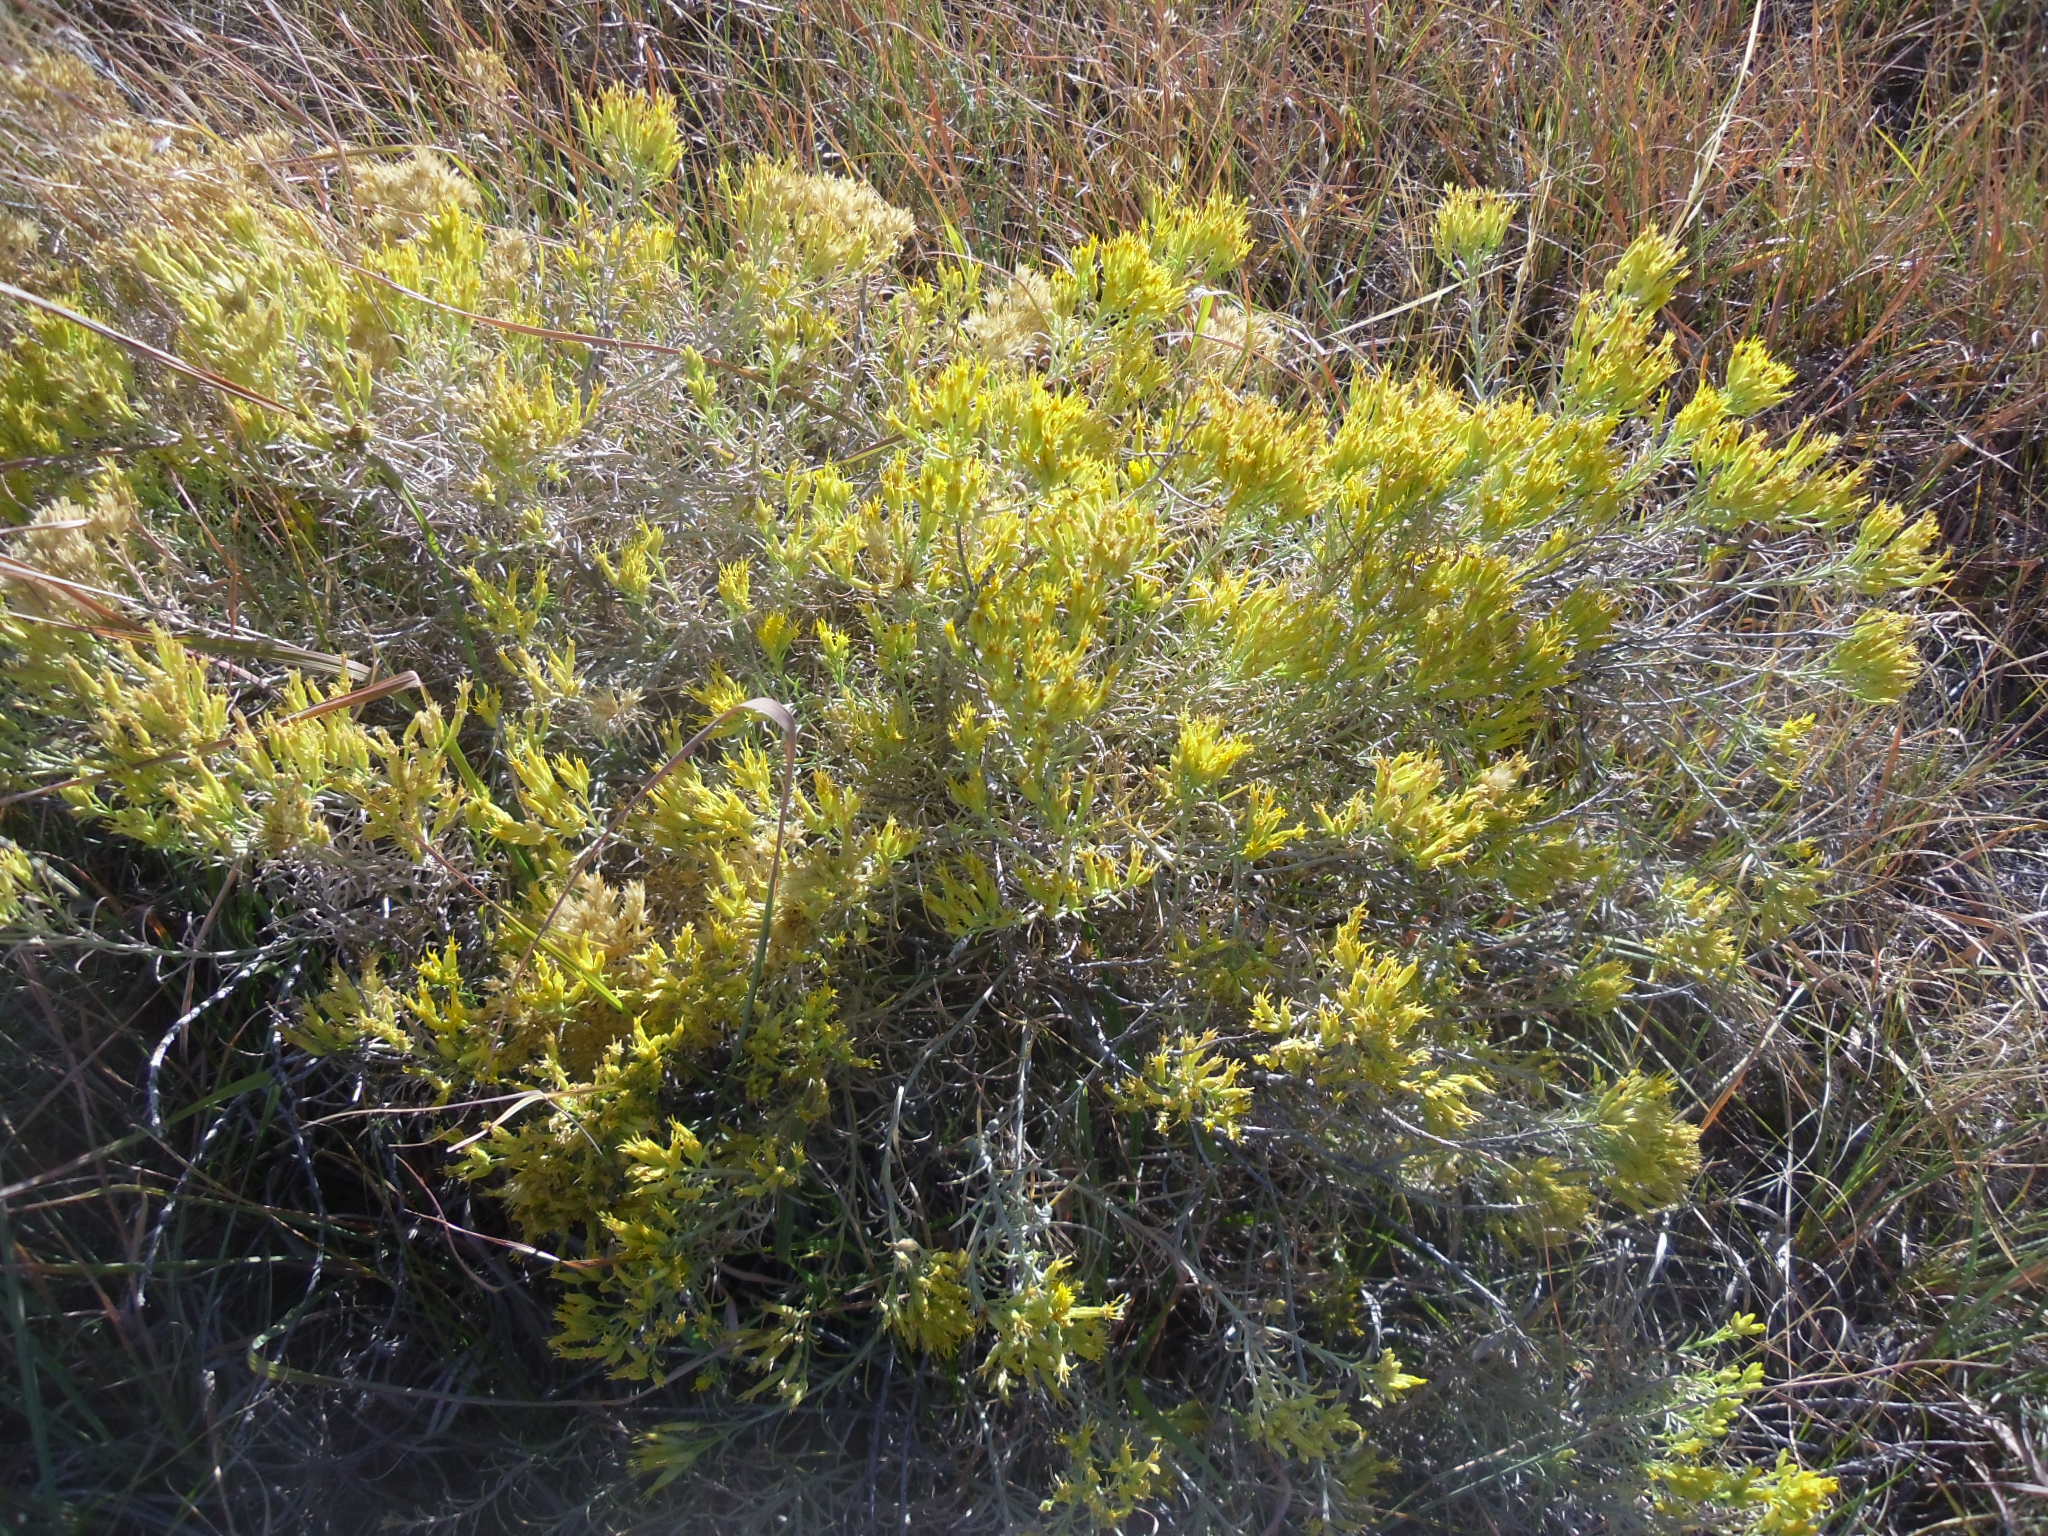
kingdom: Plantae
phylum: Tracheophyta
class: Magnoliopsida
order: Asterales
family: Asteraceae
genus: Ericameria
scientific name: Ericameria nauseosa
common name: Rubber rabbitbrush
